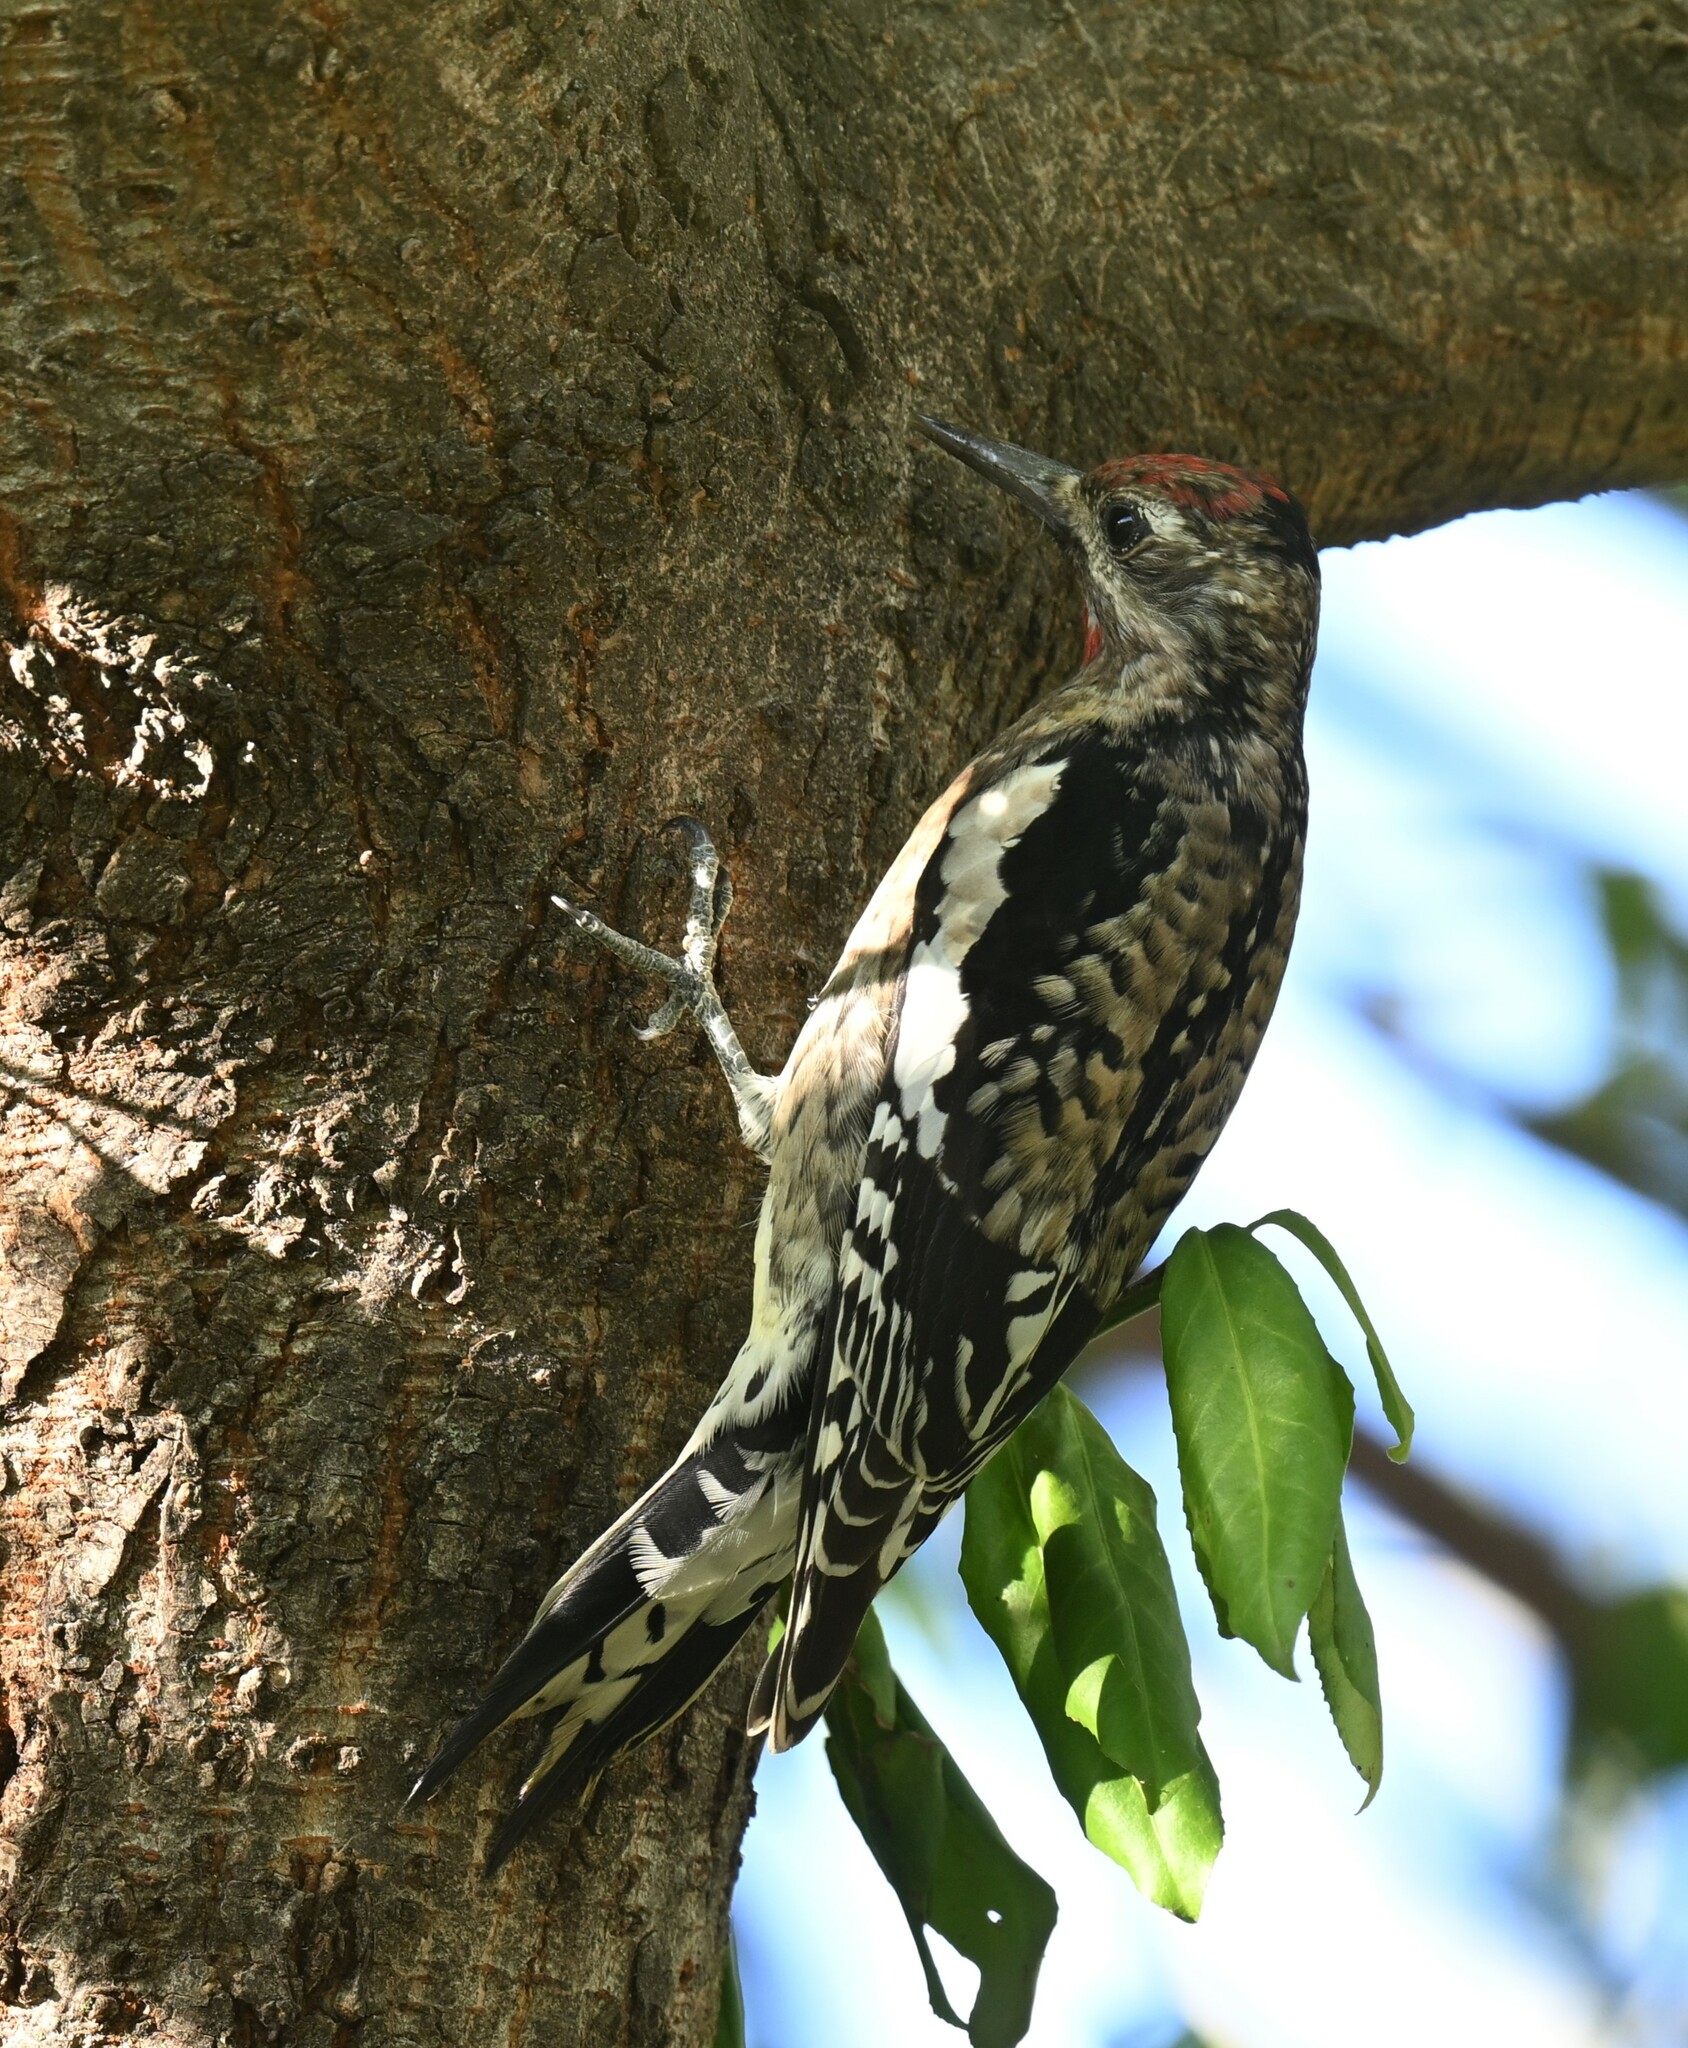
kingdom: Animalia
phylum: Chordata
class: Aves
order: Piciformes
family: Picidae
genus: Sphyrapicus
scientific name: Sphyrapicus varius
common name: Yellow-bellied sapsucker
